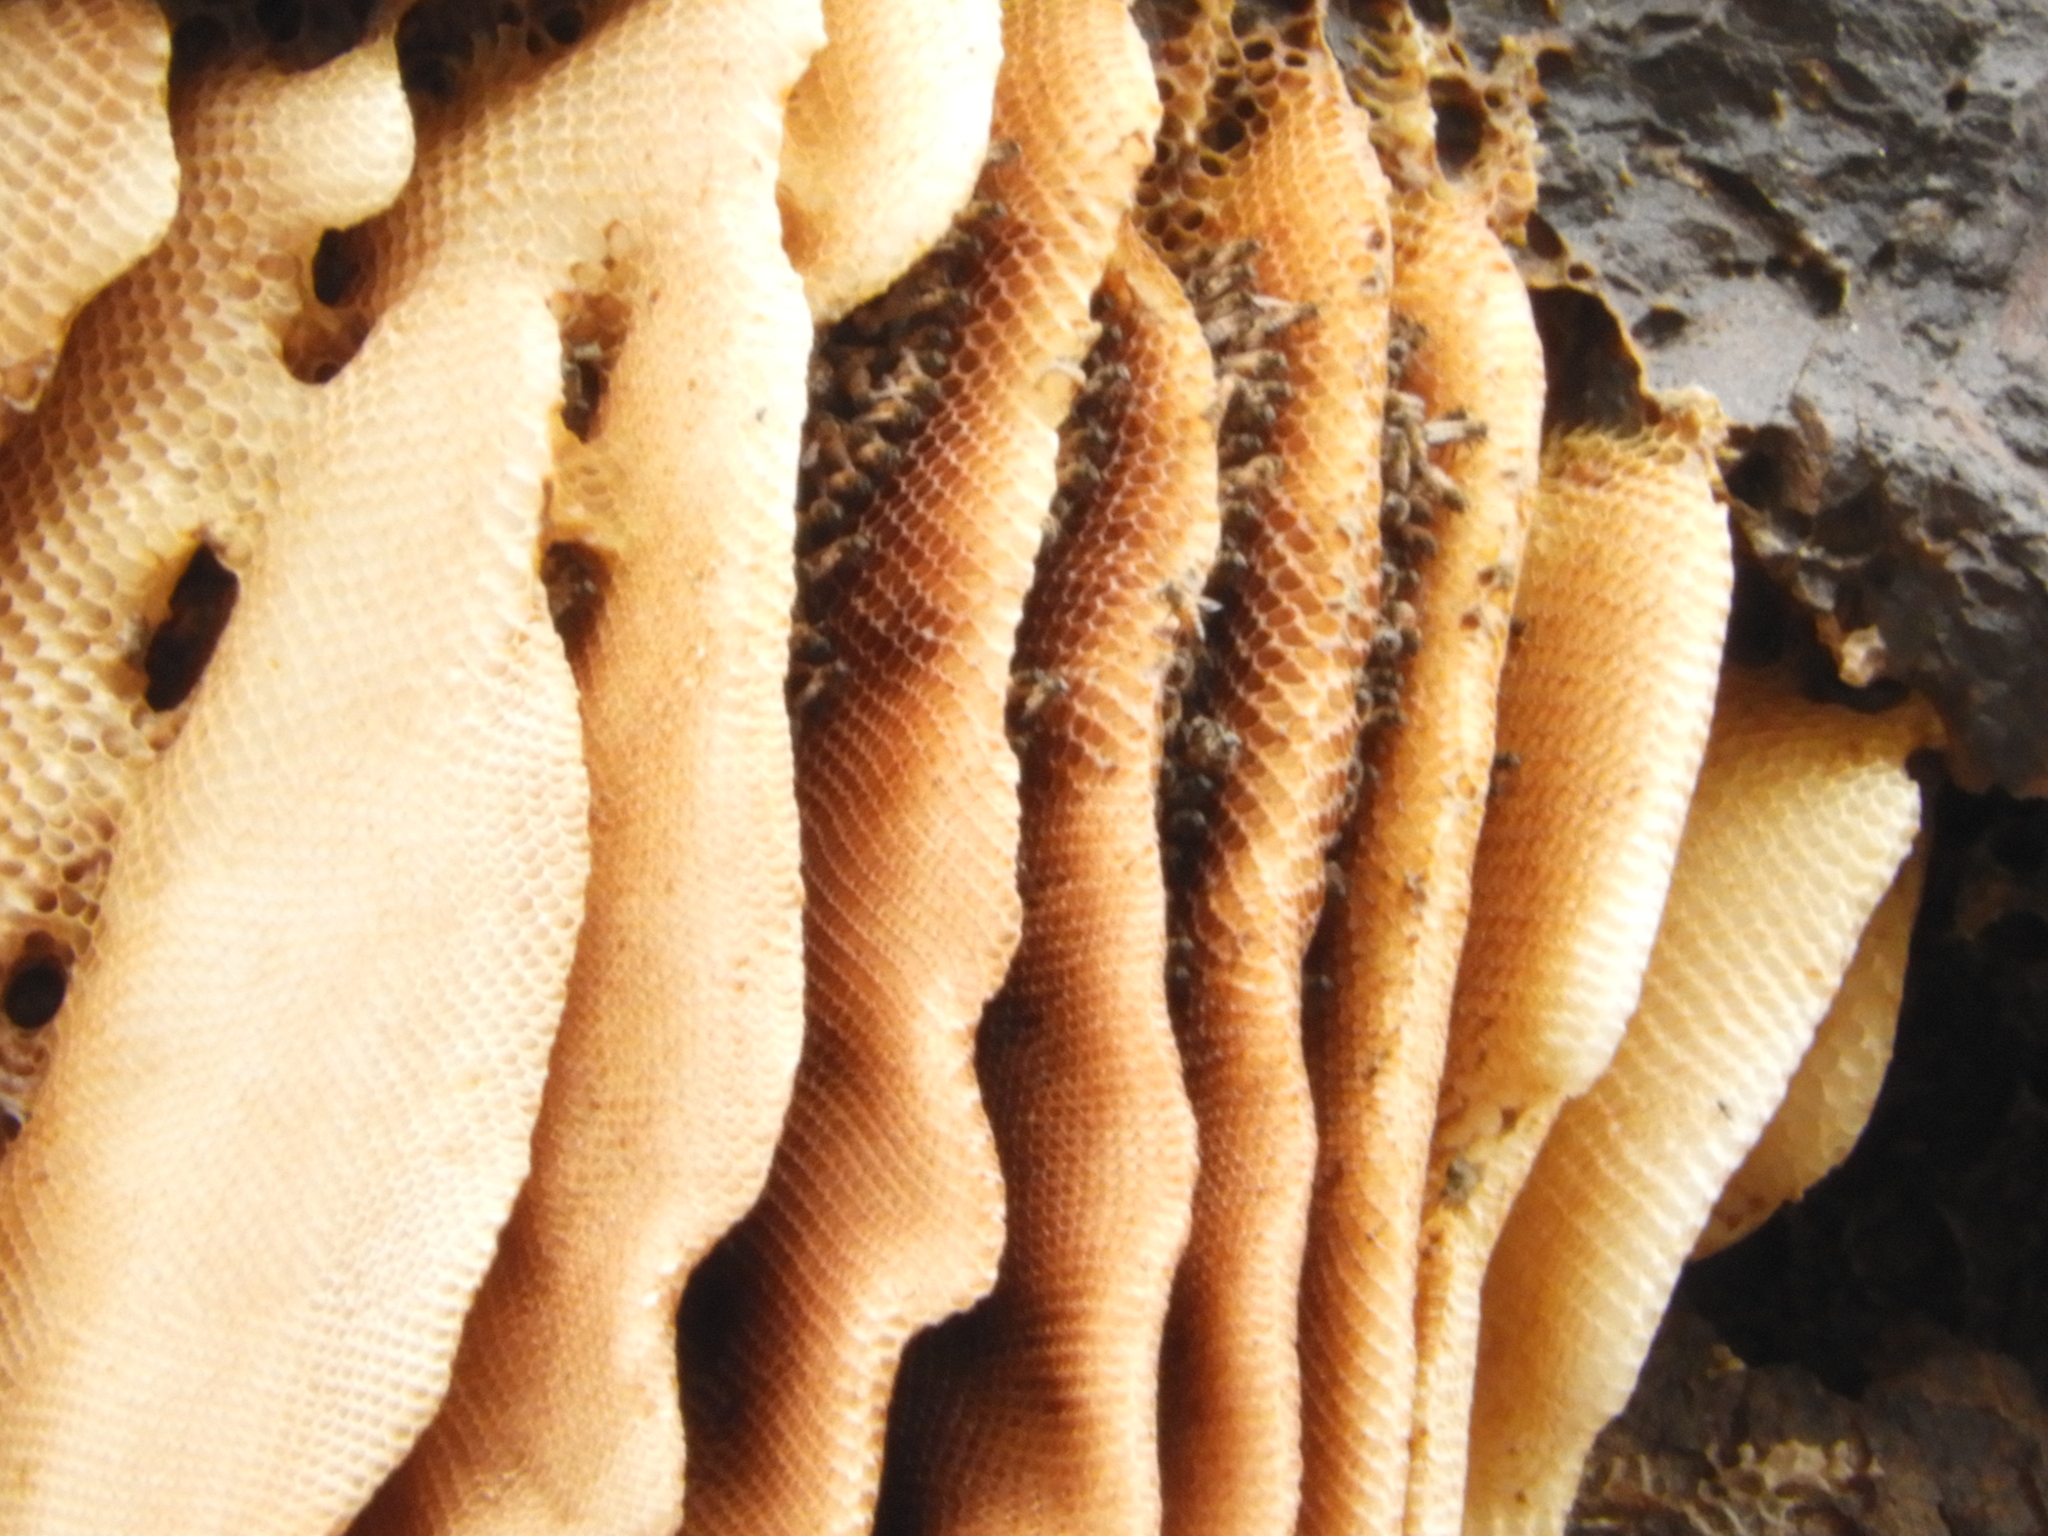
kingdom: Animalia
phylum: Arthropoda
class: Insecta
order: Hymenoptera
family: Apidae
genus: Apis
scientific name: Apis mellifera
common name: Honey bee
